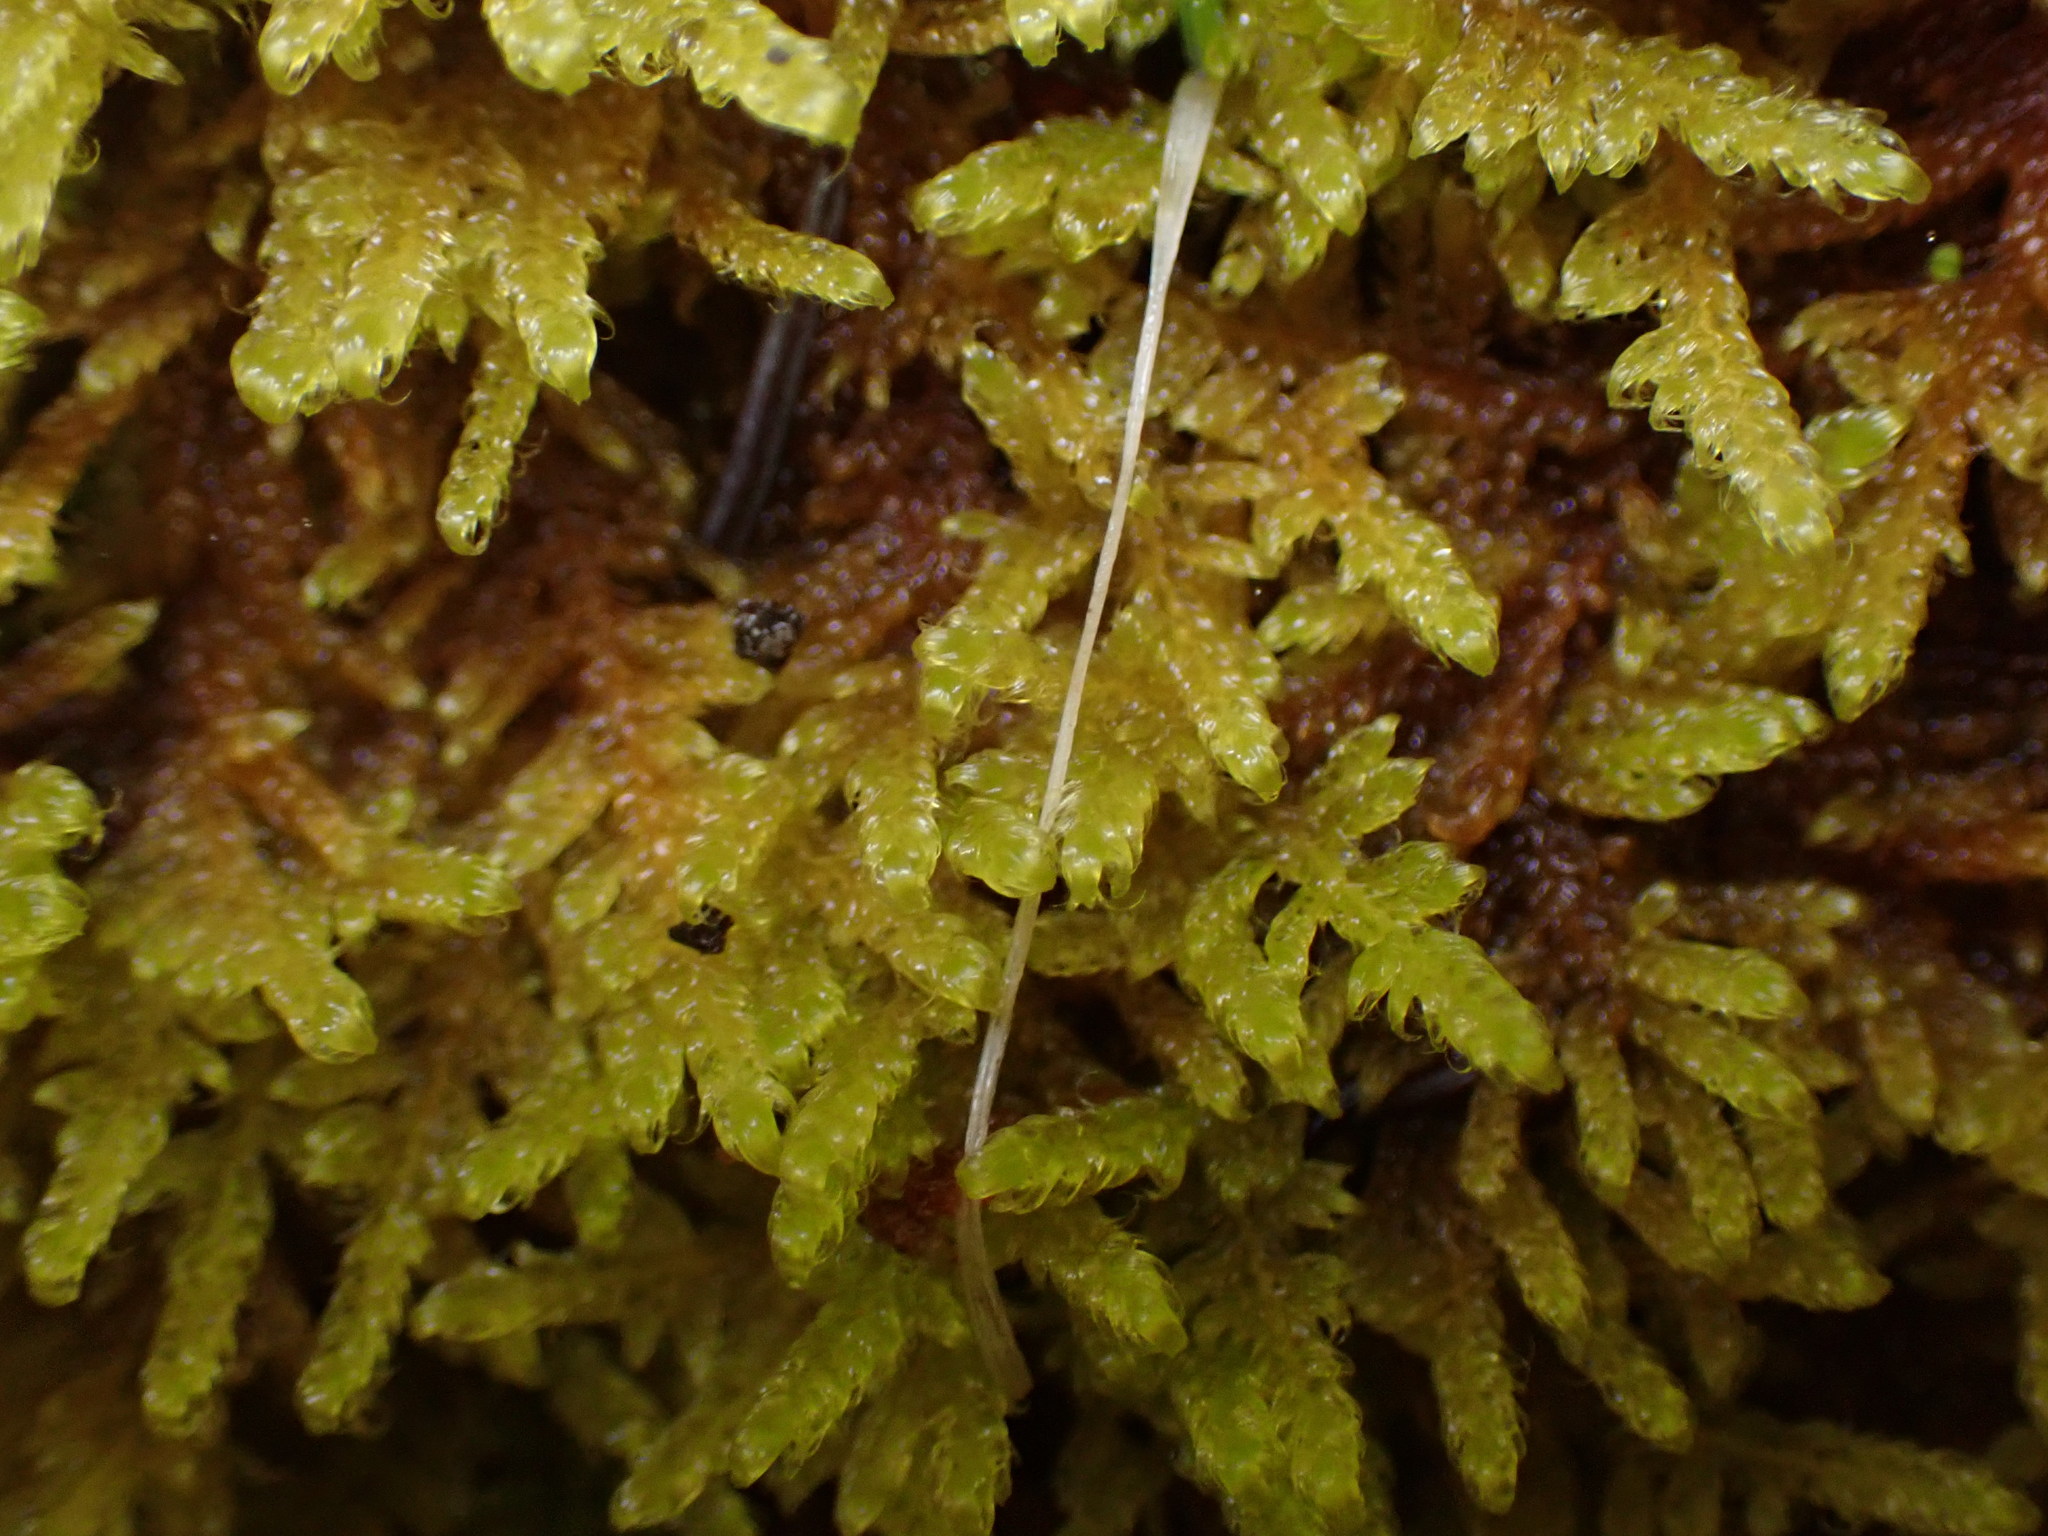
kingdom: Plantae
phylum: Bryophyta
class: Bryopsida
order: Hypnales
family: Stereodontaceae
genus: Stereodon
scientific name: Stereodon subimponens
